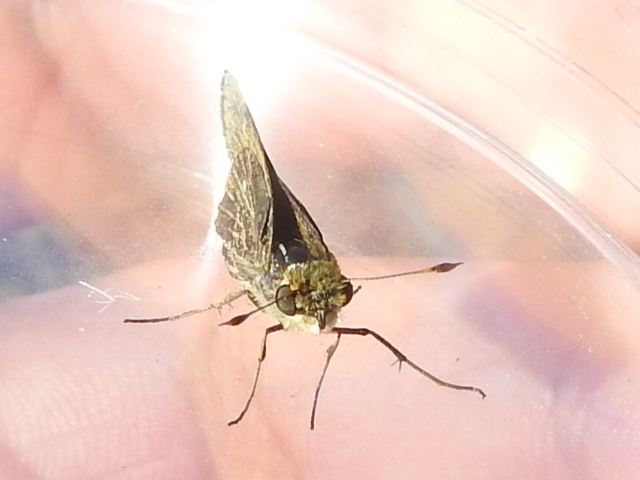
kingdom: Animalia
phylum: Arthropoda
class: Insecta
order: Lepidoptera
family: Hesperiidae
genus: Panoquina
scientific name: Panoquina panoquinoides
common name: Beach skipper
